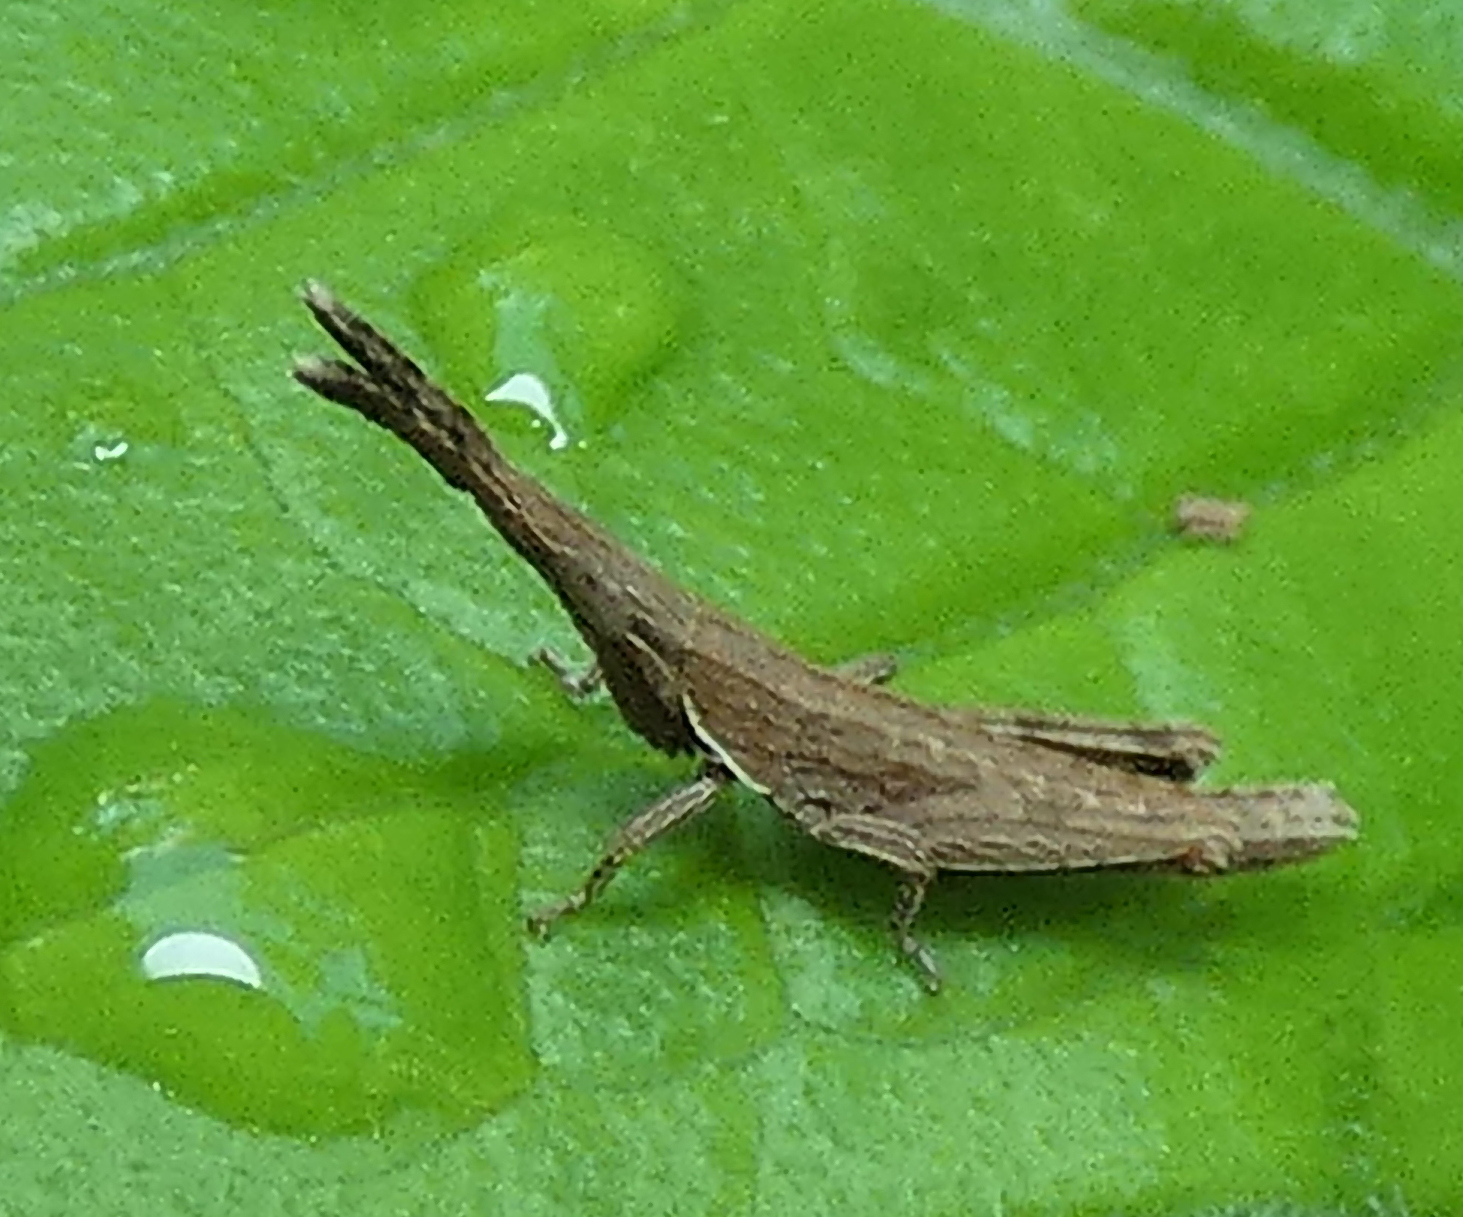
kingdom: Animalia
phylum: Arthropoda
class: Insecta
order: Orthoptera
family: Pyrgomorphidae
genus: Algete
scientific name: Algete brunneri
